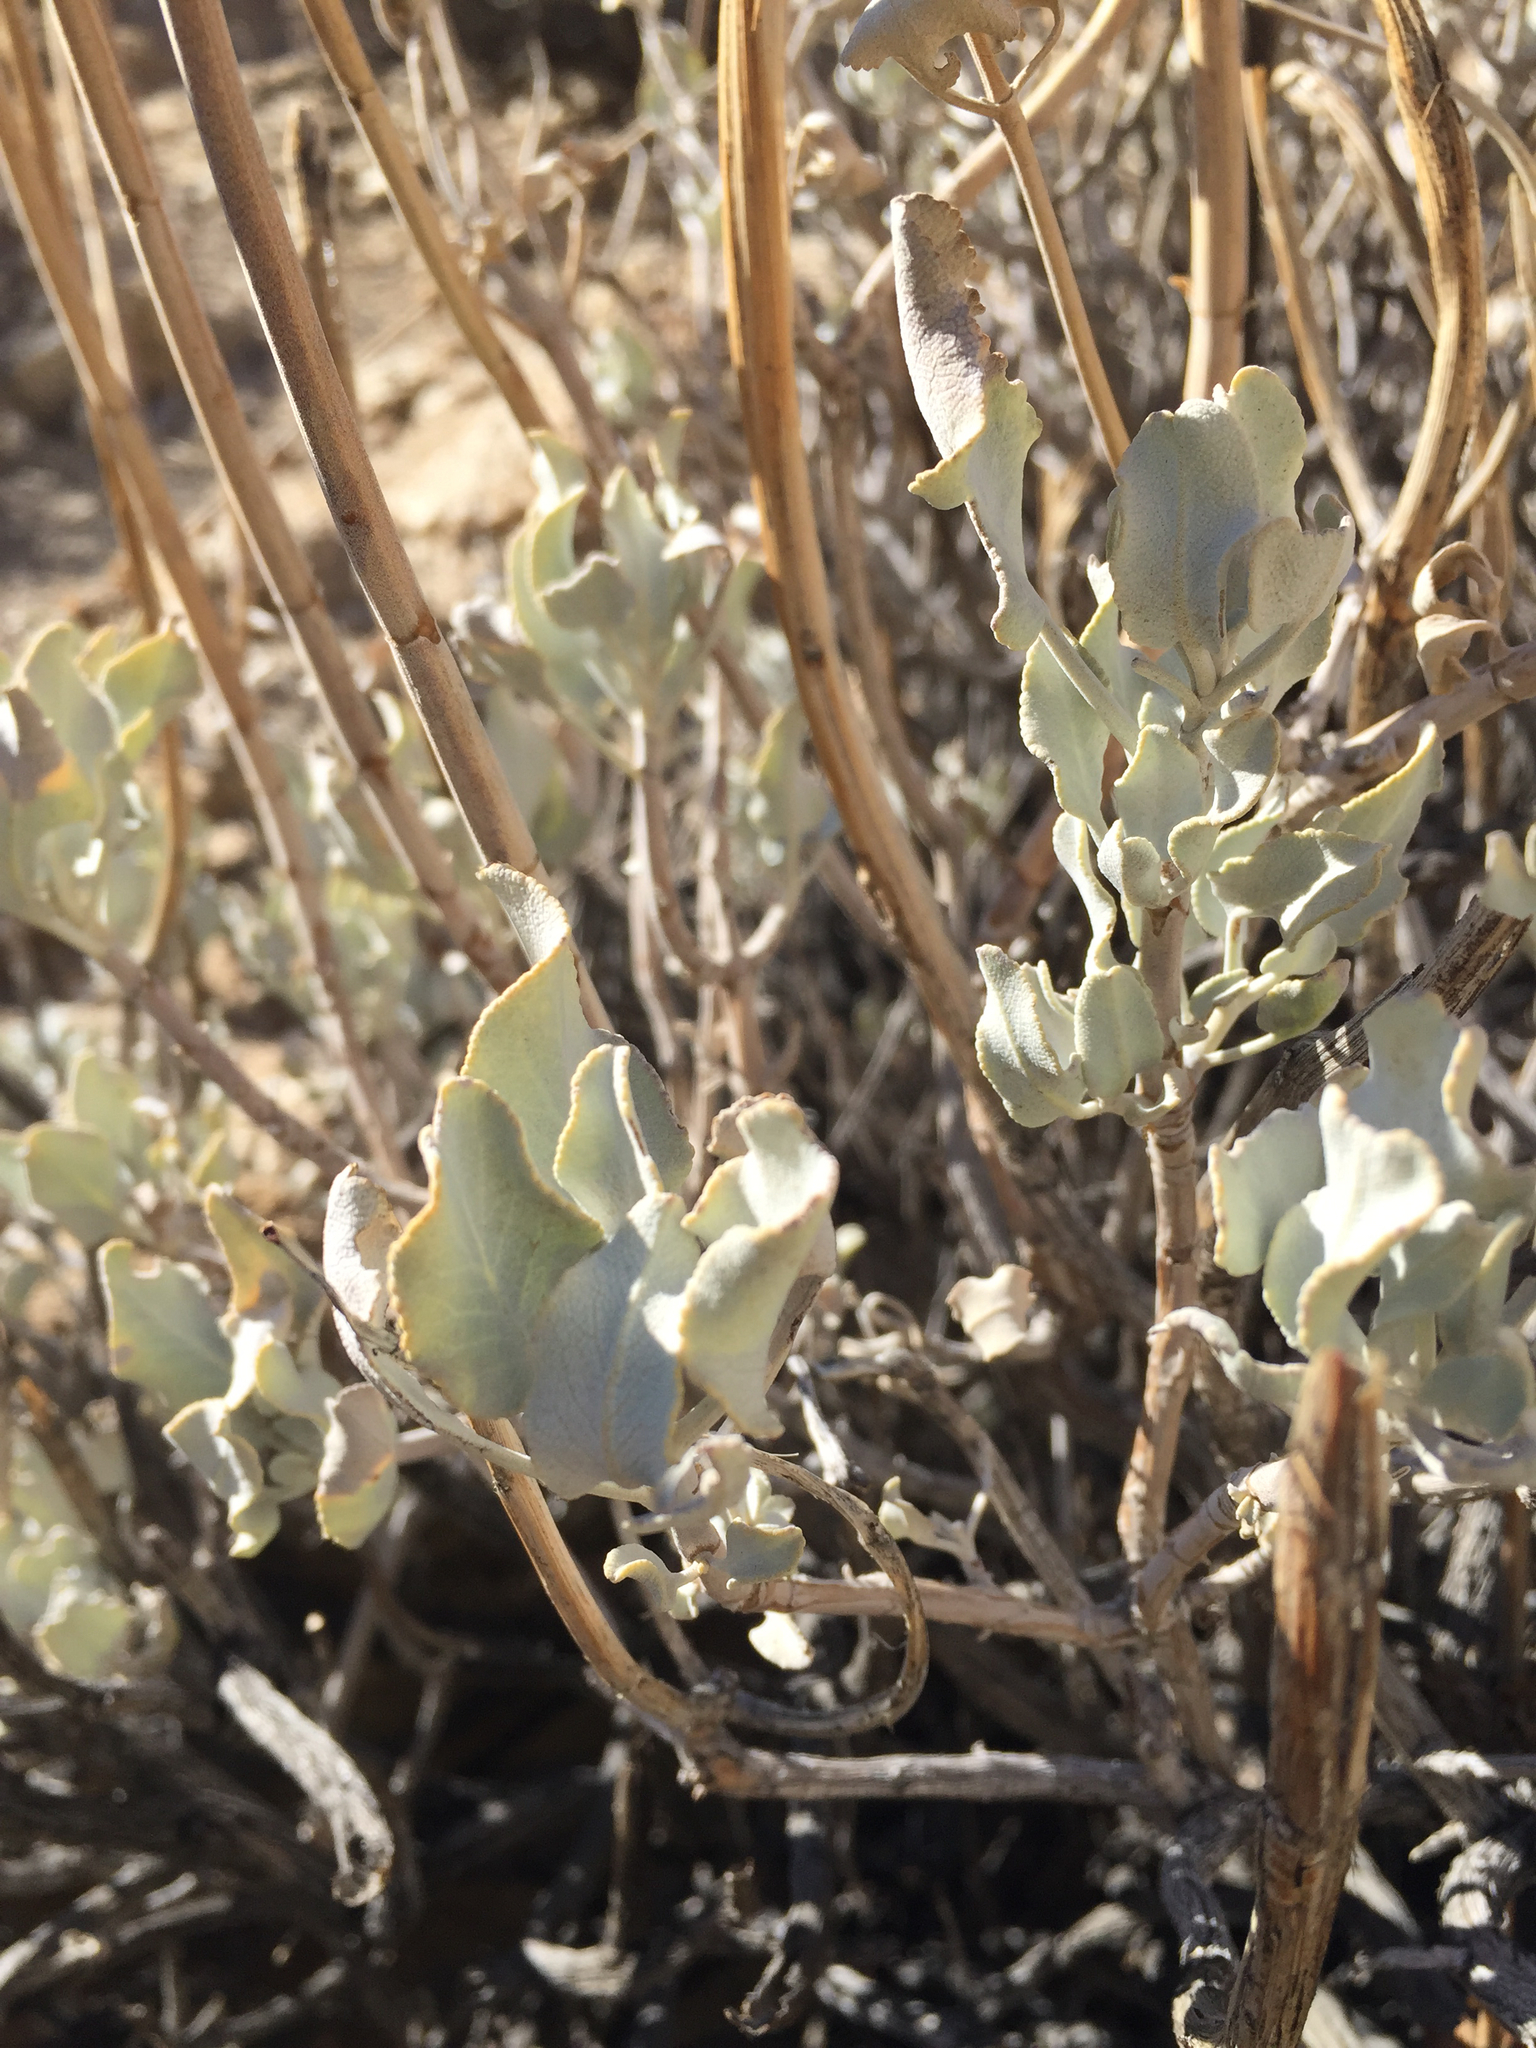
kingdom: Plantae
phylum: Tracheophyta
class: Magnoliopsida
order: Lamiales
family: Lamiaceae
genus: Salvia
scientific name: Salvia vaseyi
